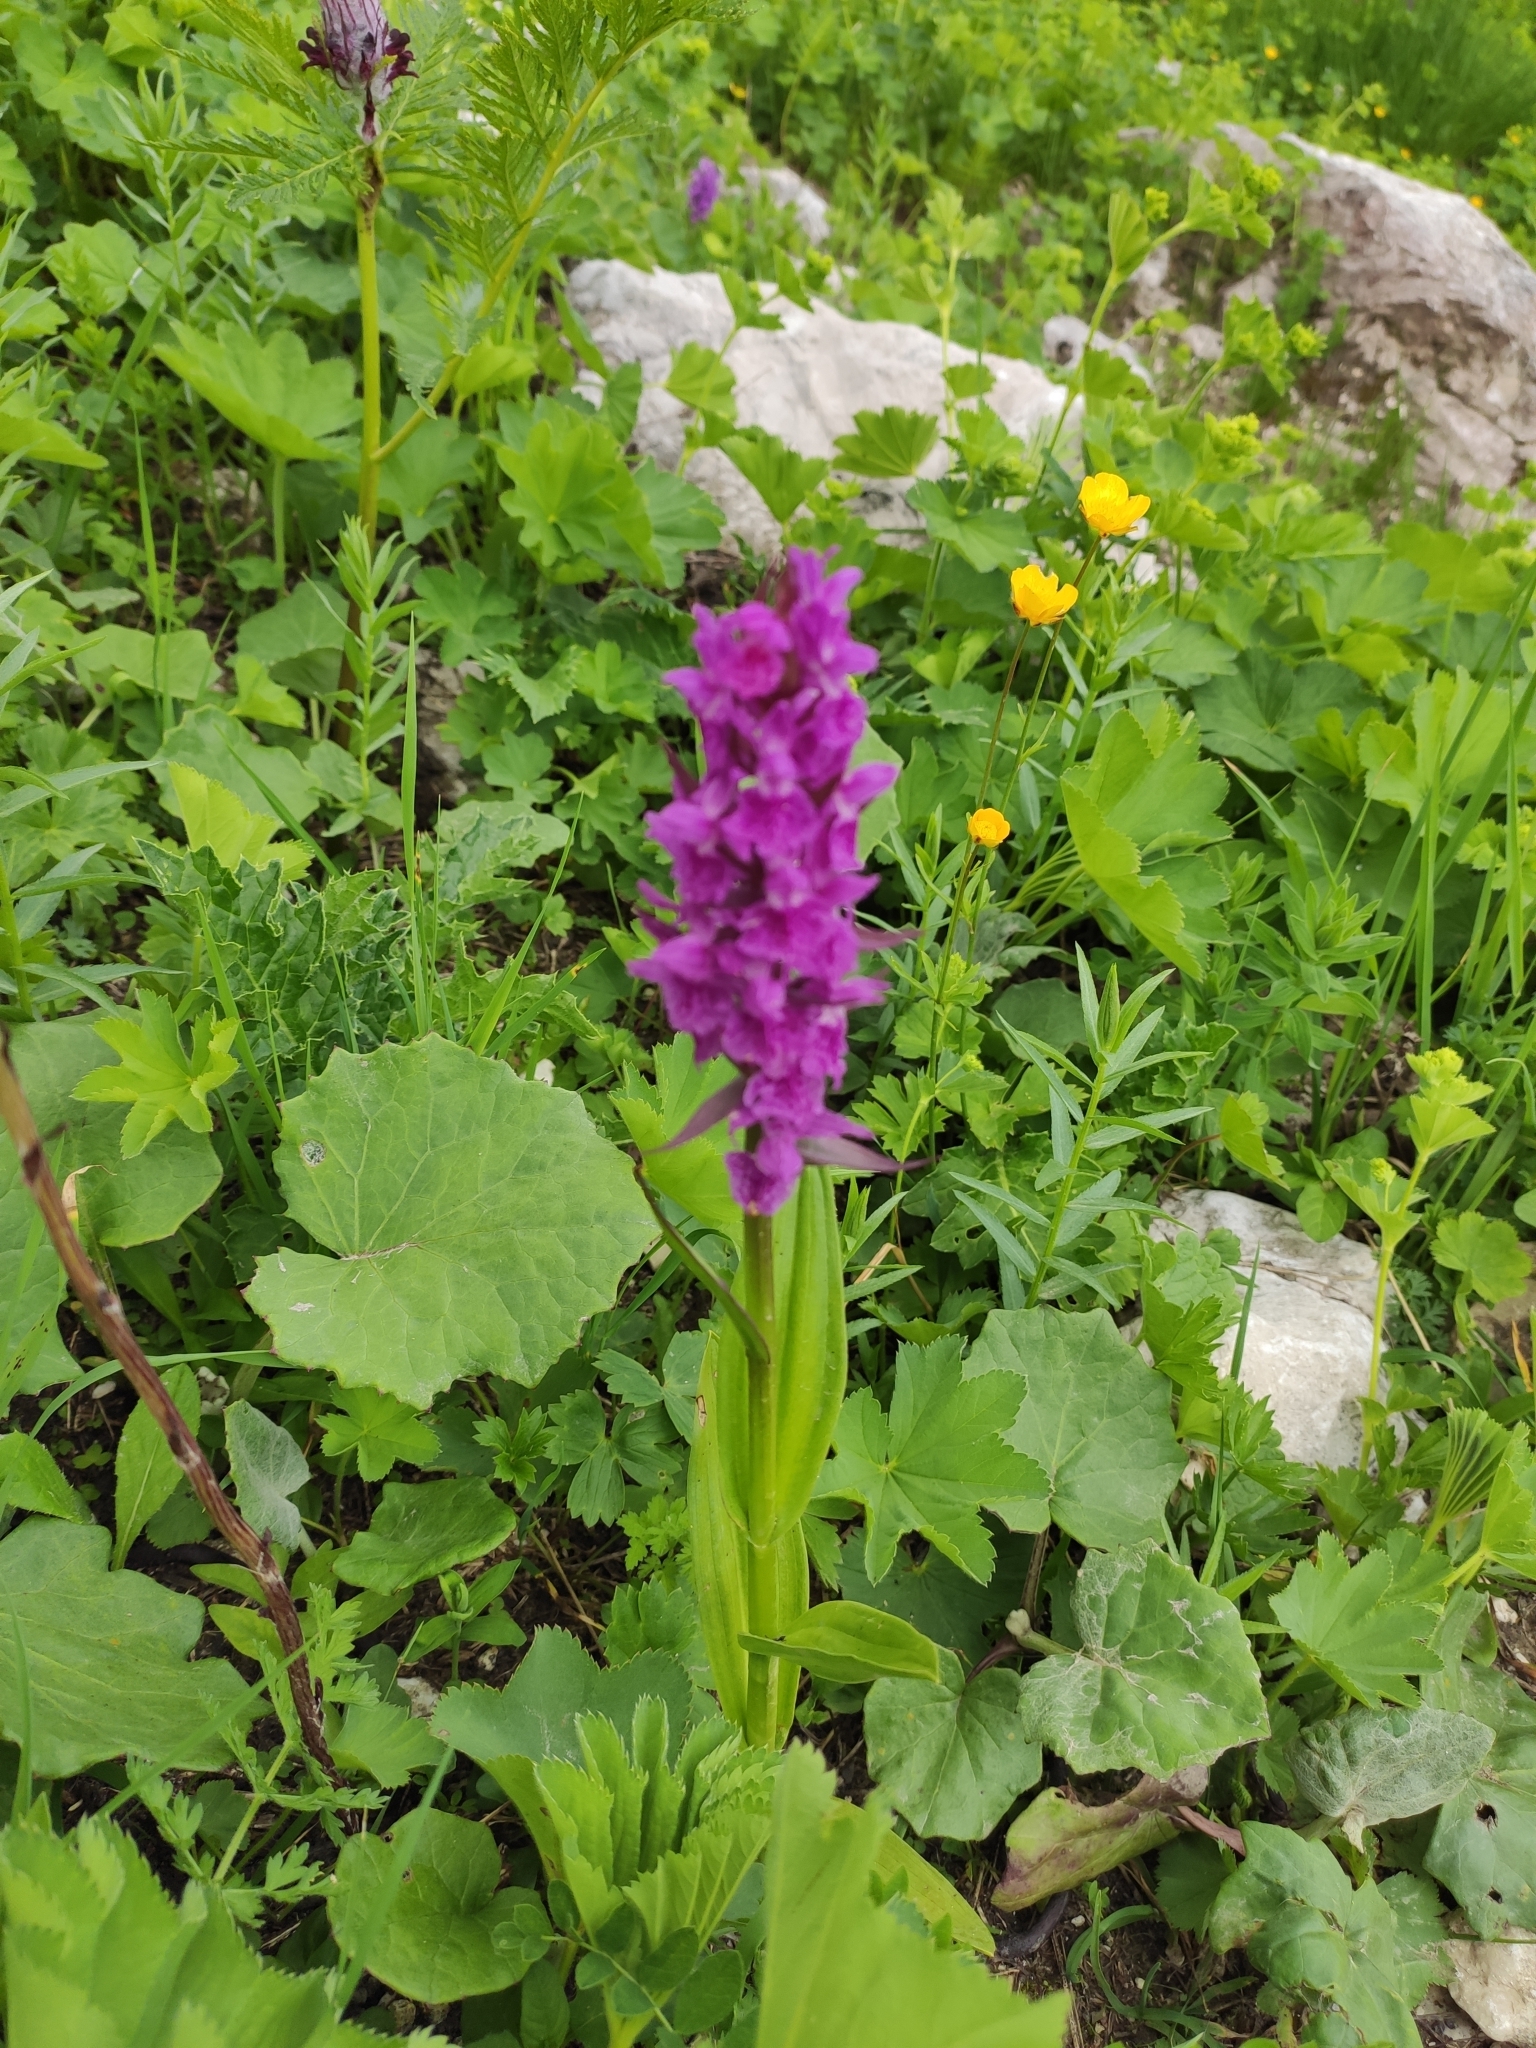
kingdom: Plantae
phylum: Tracheophyta
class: Liliopsida
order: Asparagales
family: Orchidaceae
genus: Dactylorhiza
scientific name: Dactylorhiza euxina
